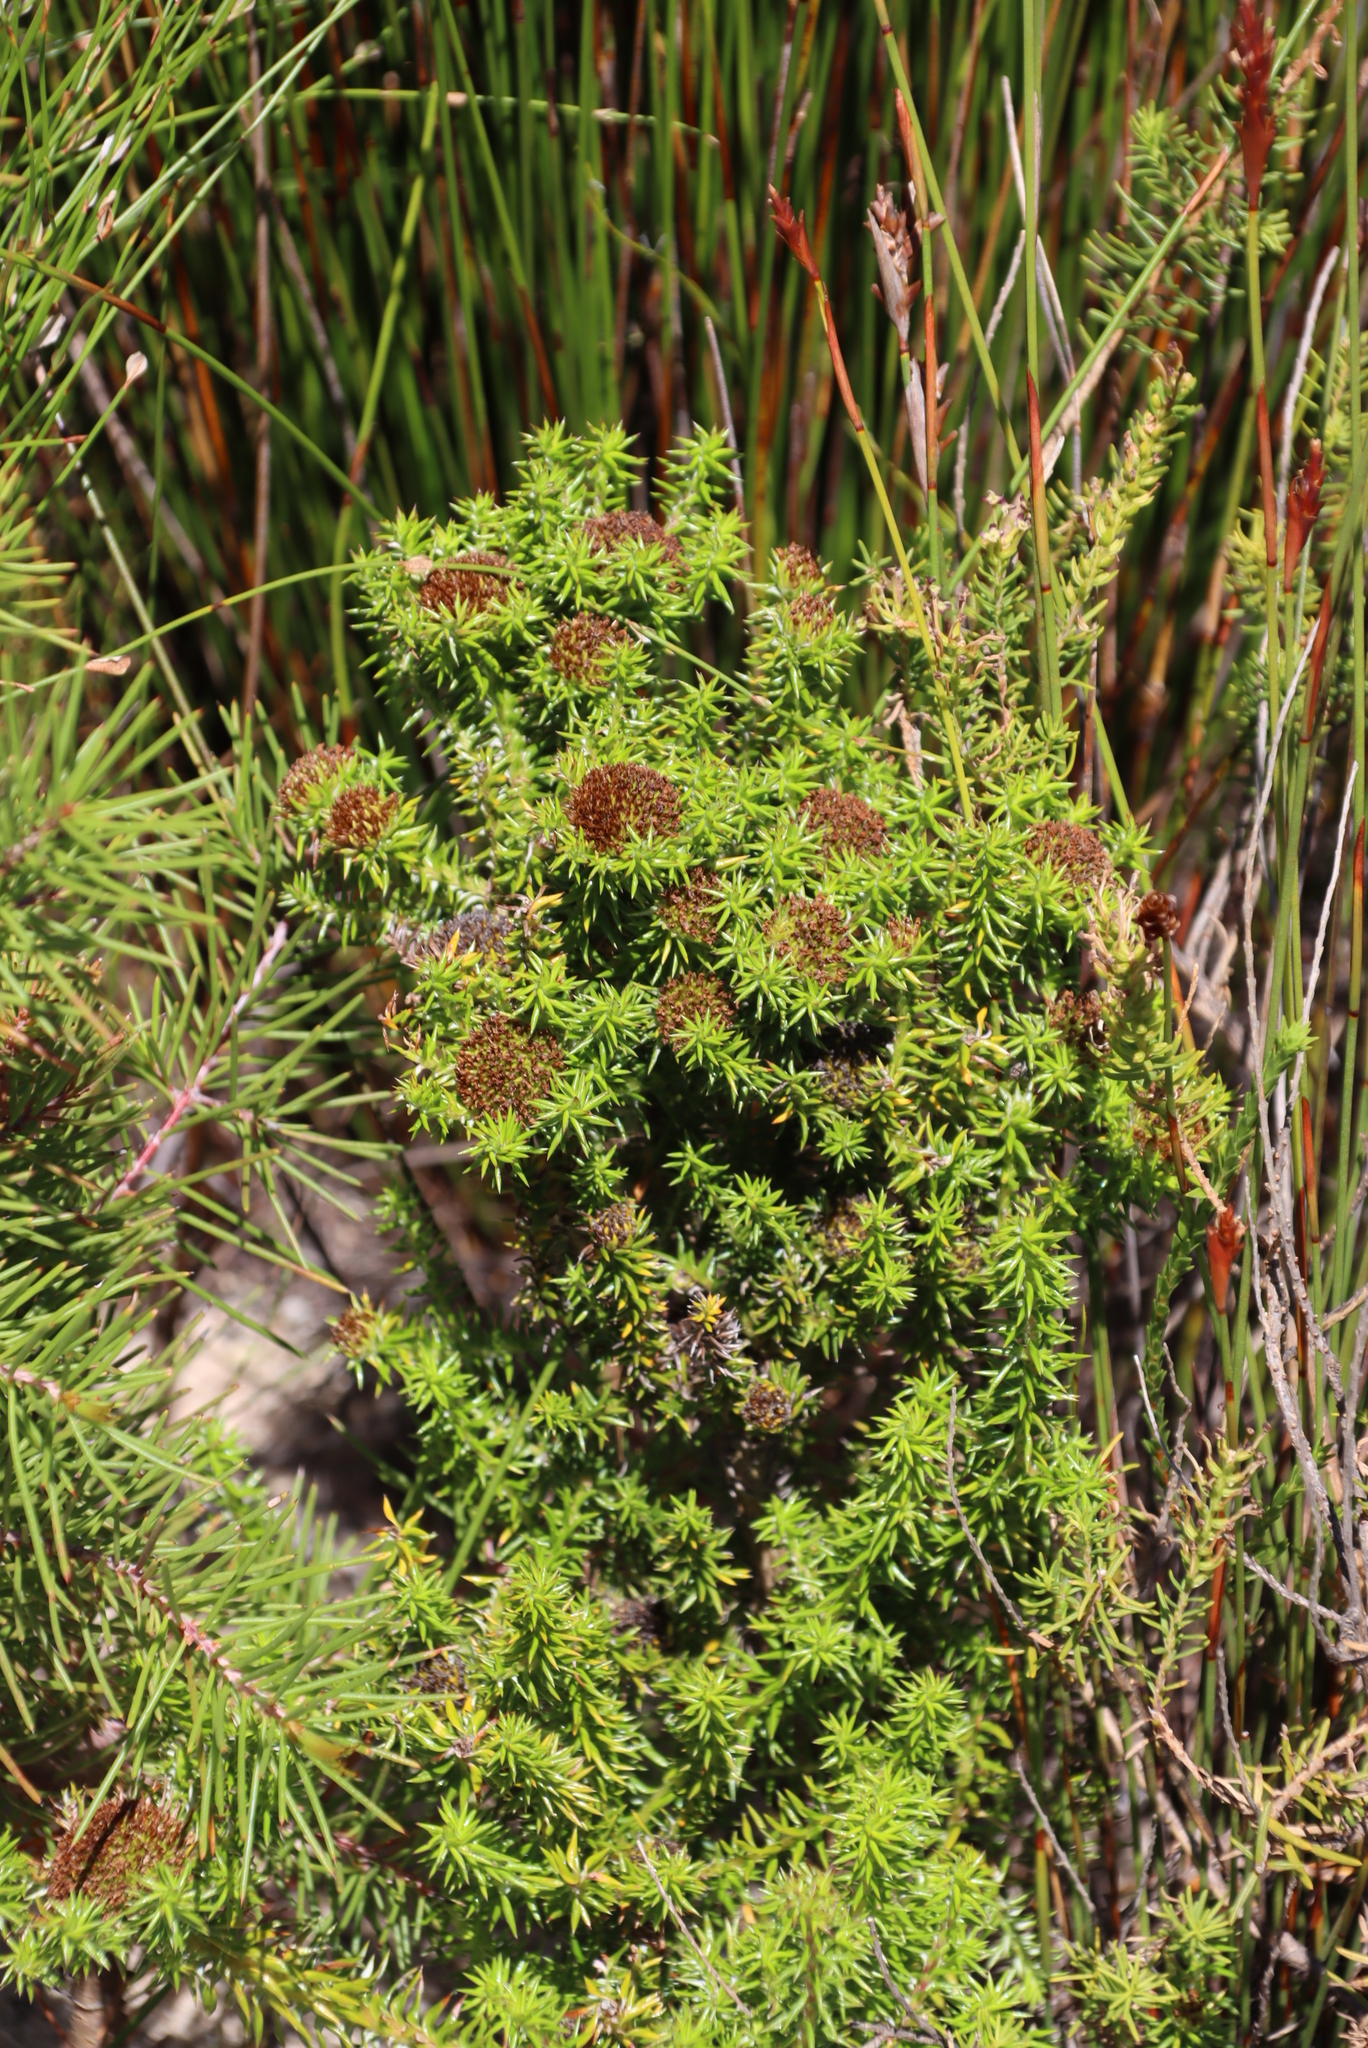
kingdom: Plantae
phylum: Tracheophyta
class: Magnoliopsida
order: Asterales
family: Asteraceae
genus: Stoebe
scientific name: Stoebe aethiopica
